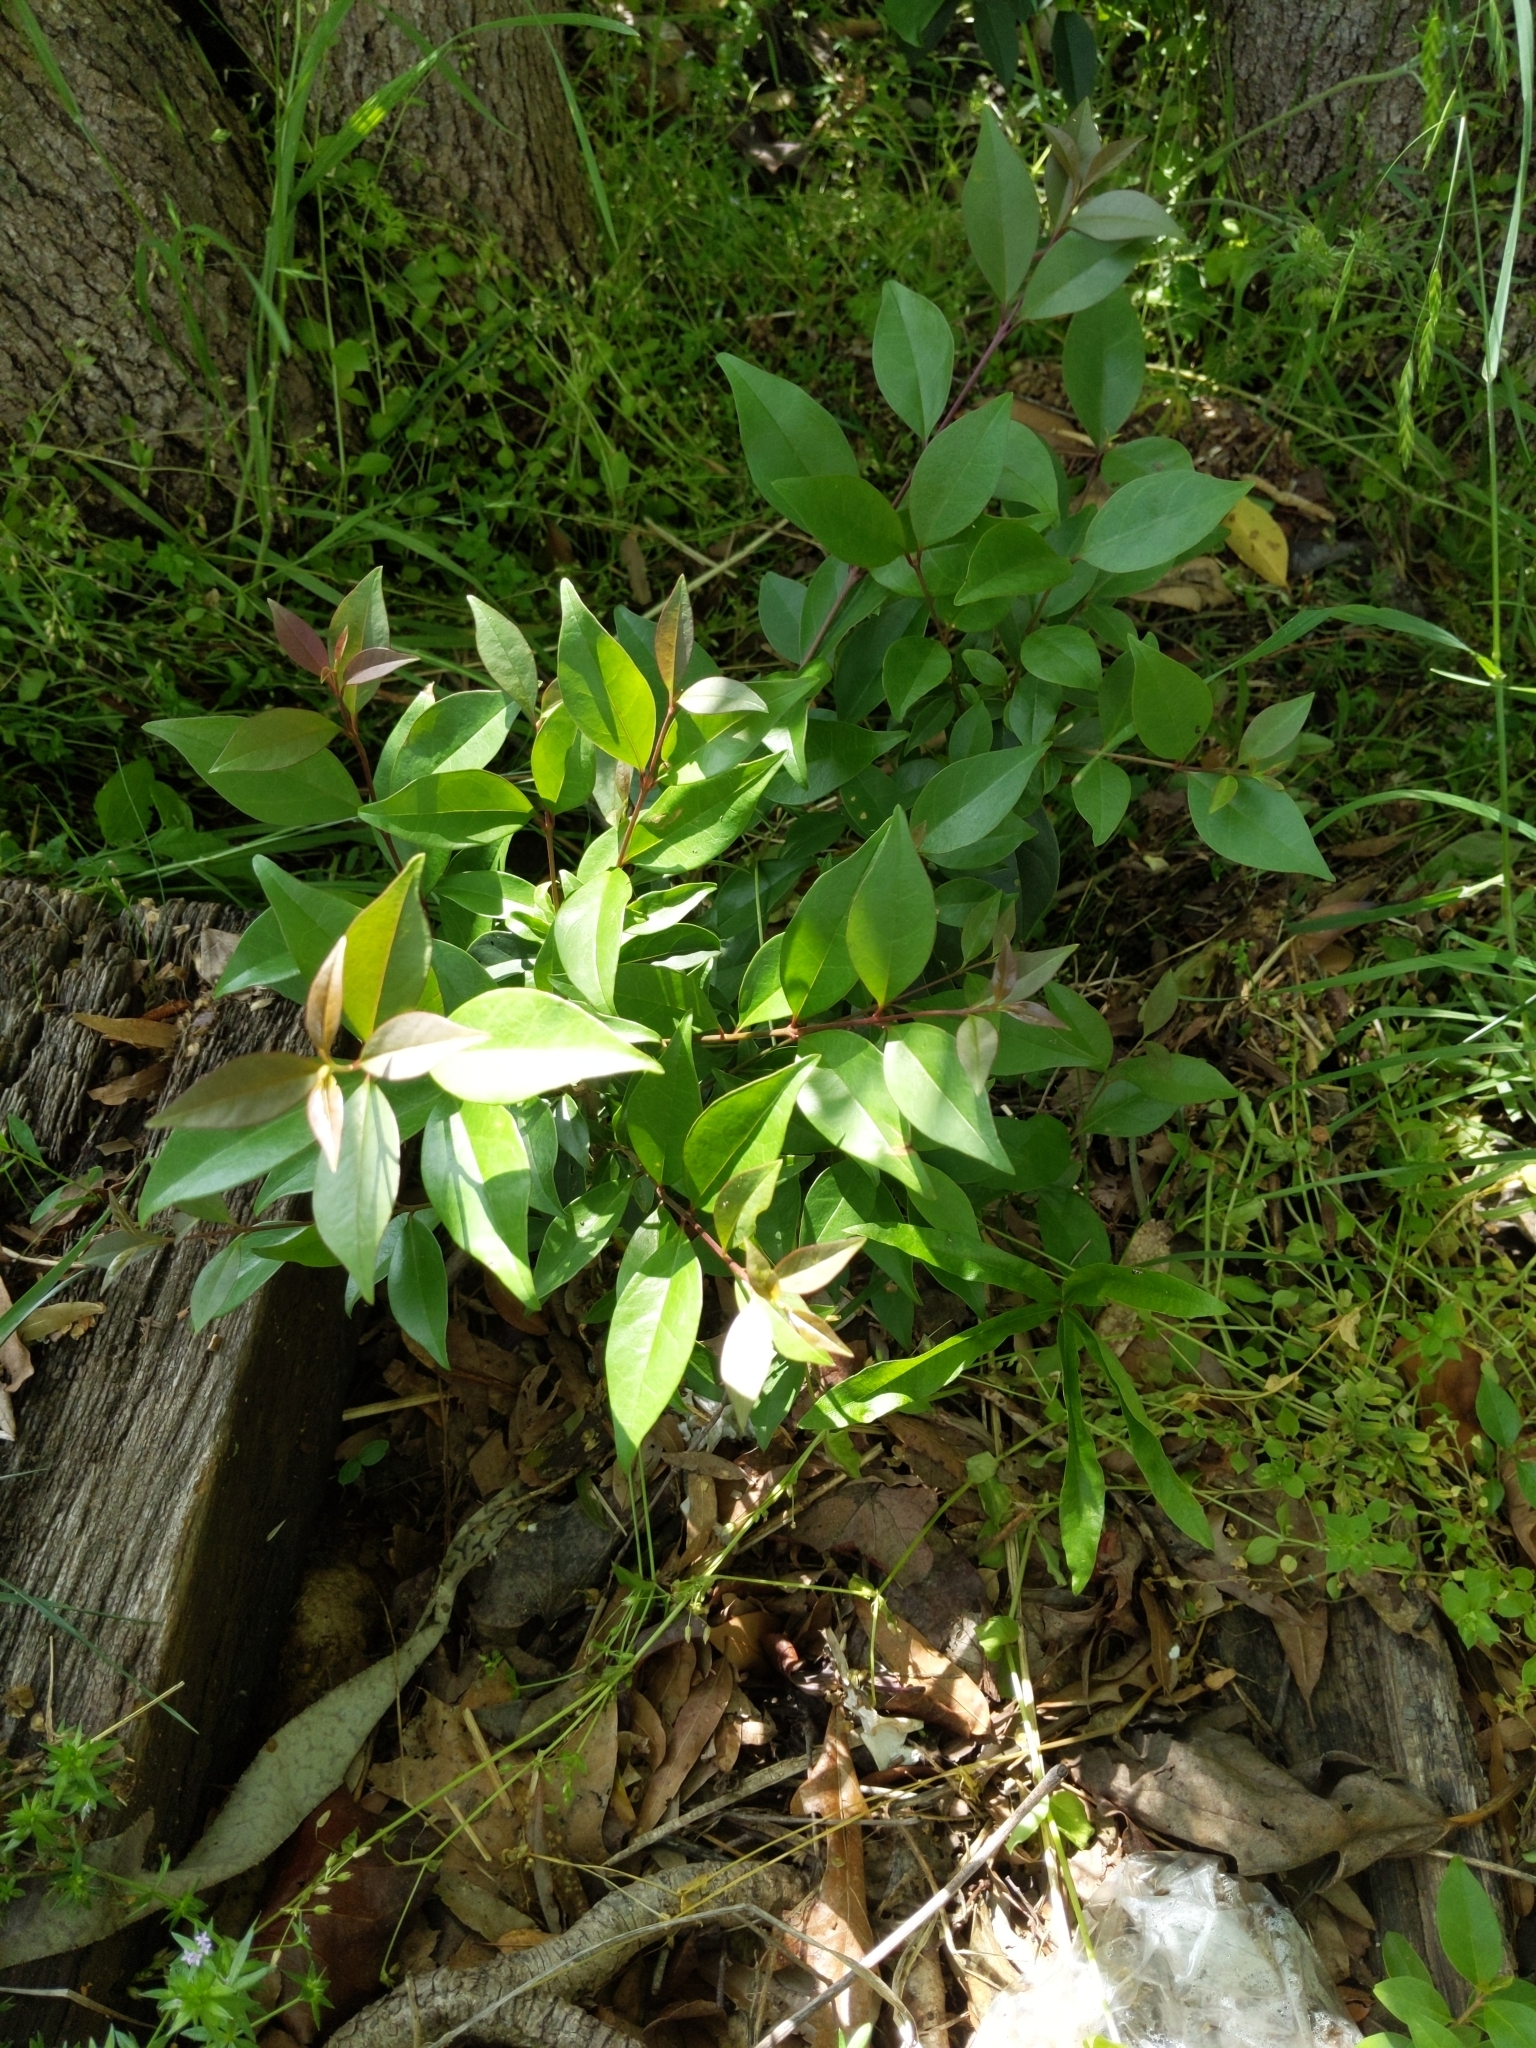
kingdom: Plantae
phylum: Tracheophyta
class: Magnoliopsida
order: Lamiales
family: Oleaceae
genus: Ligustrum
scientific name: Ligustrum lucidum
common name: Glossy privet
